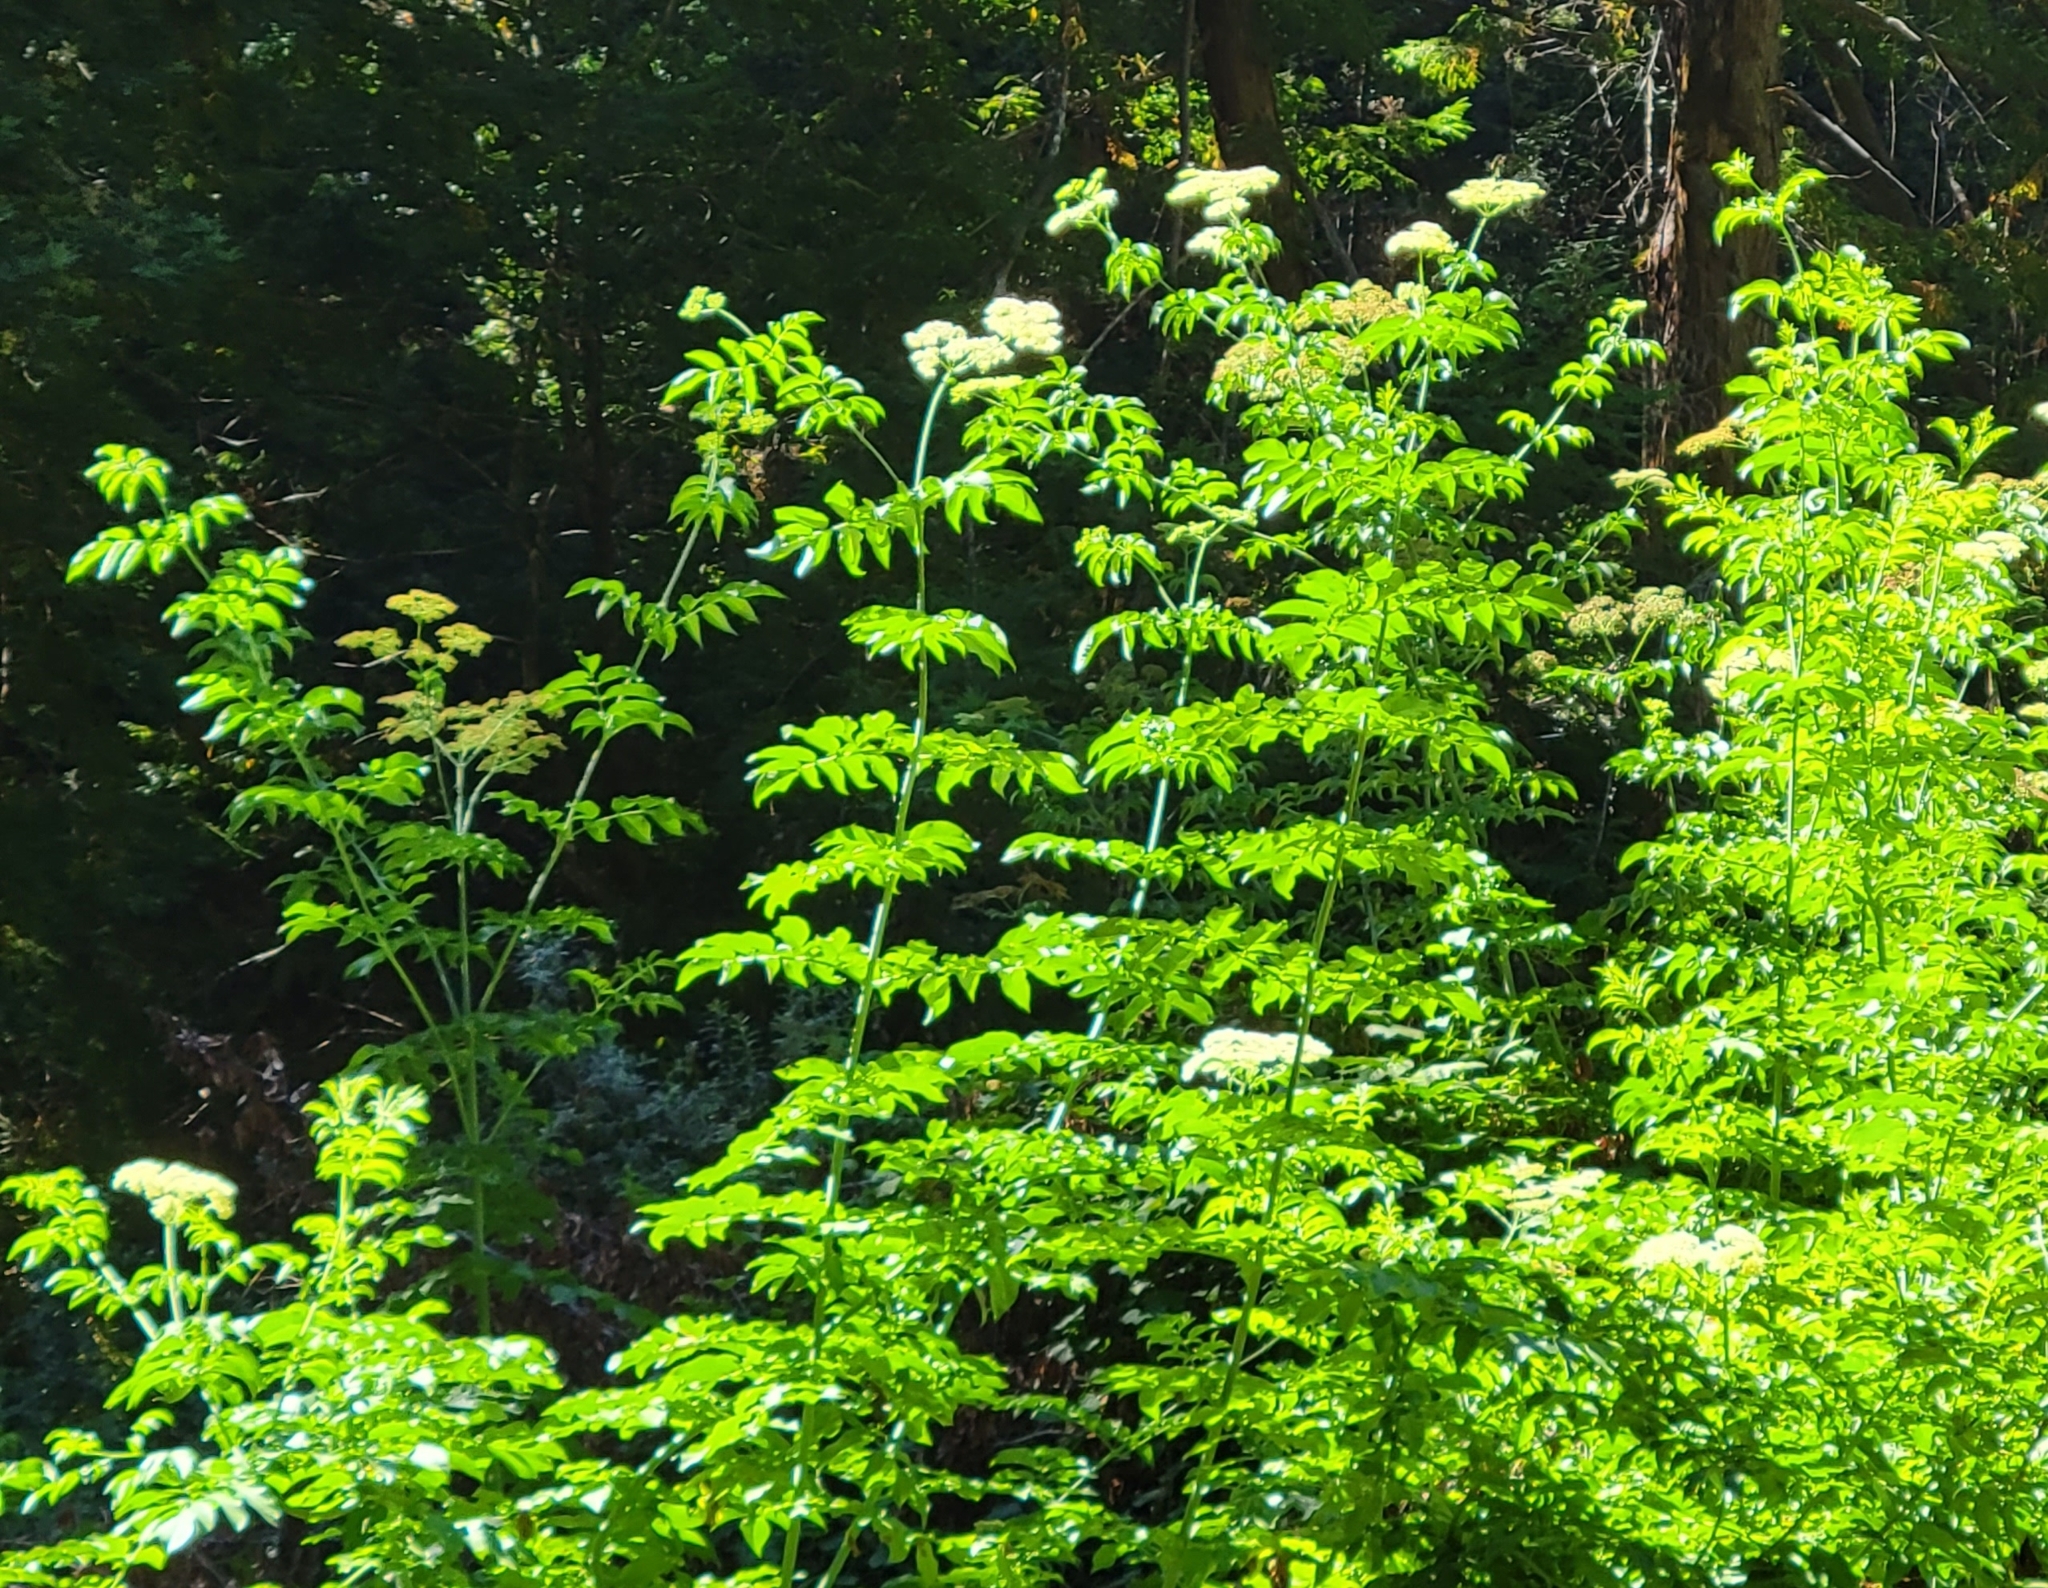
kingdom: Plantae
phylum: Tracheophyta
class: Magnoliopsida
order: Dipsacales
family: Viburnaceae
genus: Sambucus
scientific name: Sambucus cerulea
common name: Blue elder
